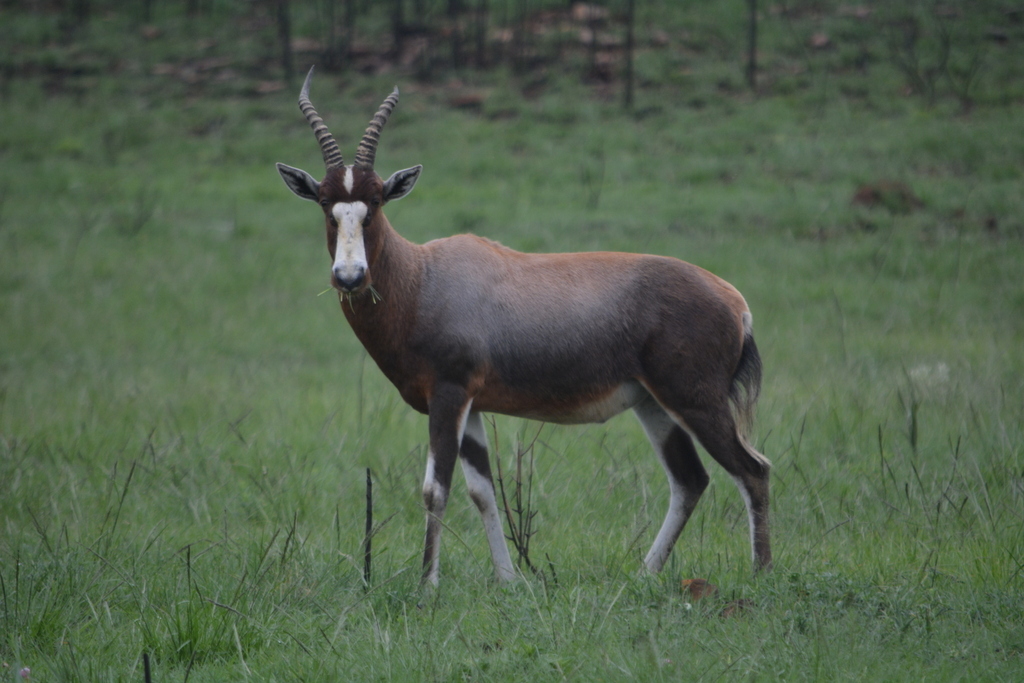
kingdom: Animalia
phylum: Chordata
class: Mammalia
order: Artiodactyla
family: Bovidae
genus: Damaliscus
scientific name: Damaliscus pygargus
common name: Bontebok
